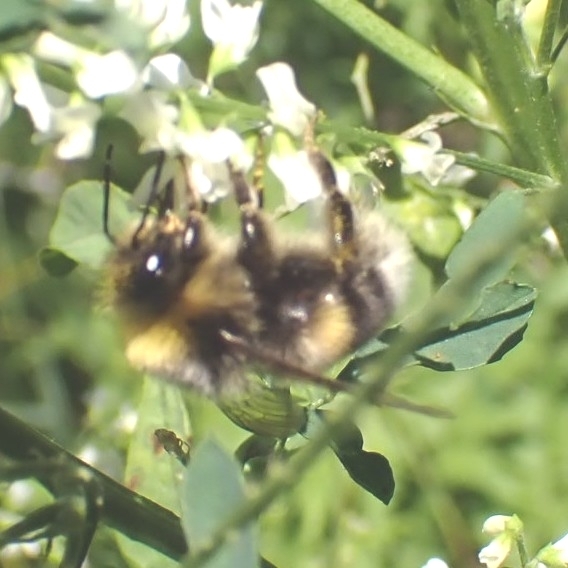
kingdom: Animalia
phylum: Arthropoda
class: Insecta
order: Hymenoptera
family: Apidae
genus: Bombus
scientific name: Bombus lucorum
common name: White-tailed bumblebee
